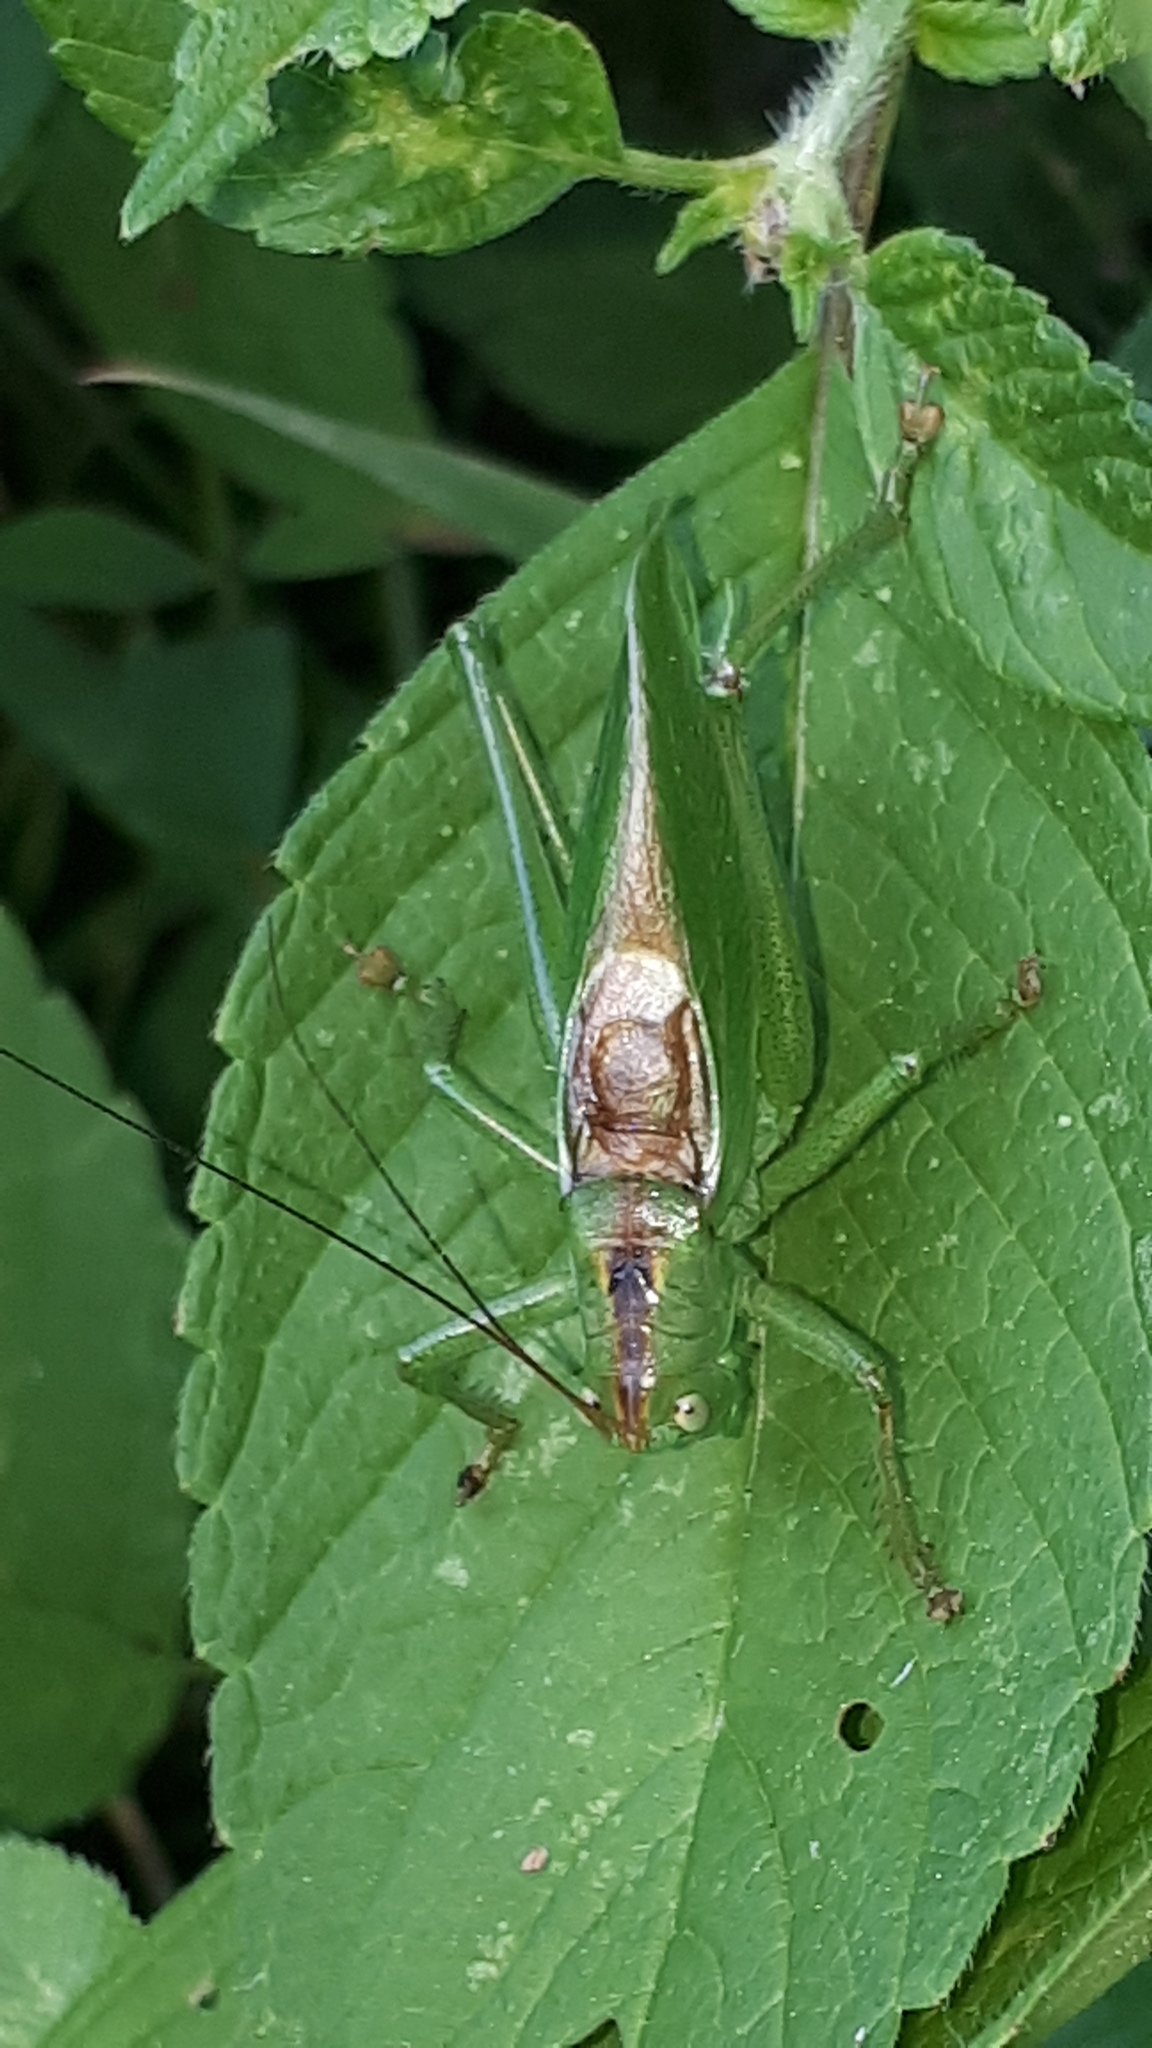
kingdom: Animalia
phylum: Arthropoda
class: Insecta
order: Orthoptera
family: Tettigoniidae
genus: Tettigonia
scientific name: Tettigonia cantans
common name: Upland green bush-cricket
